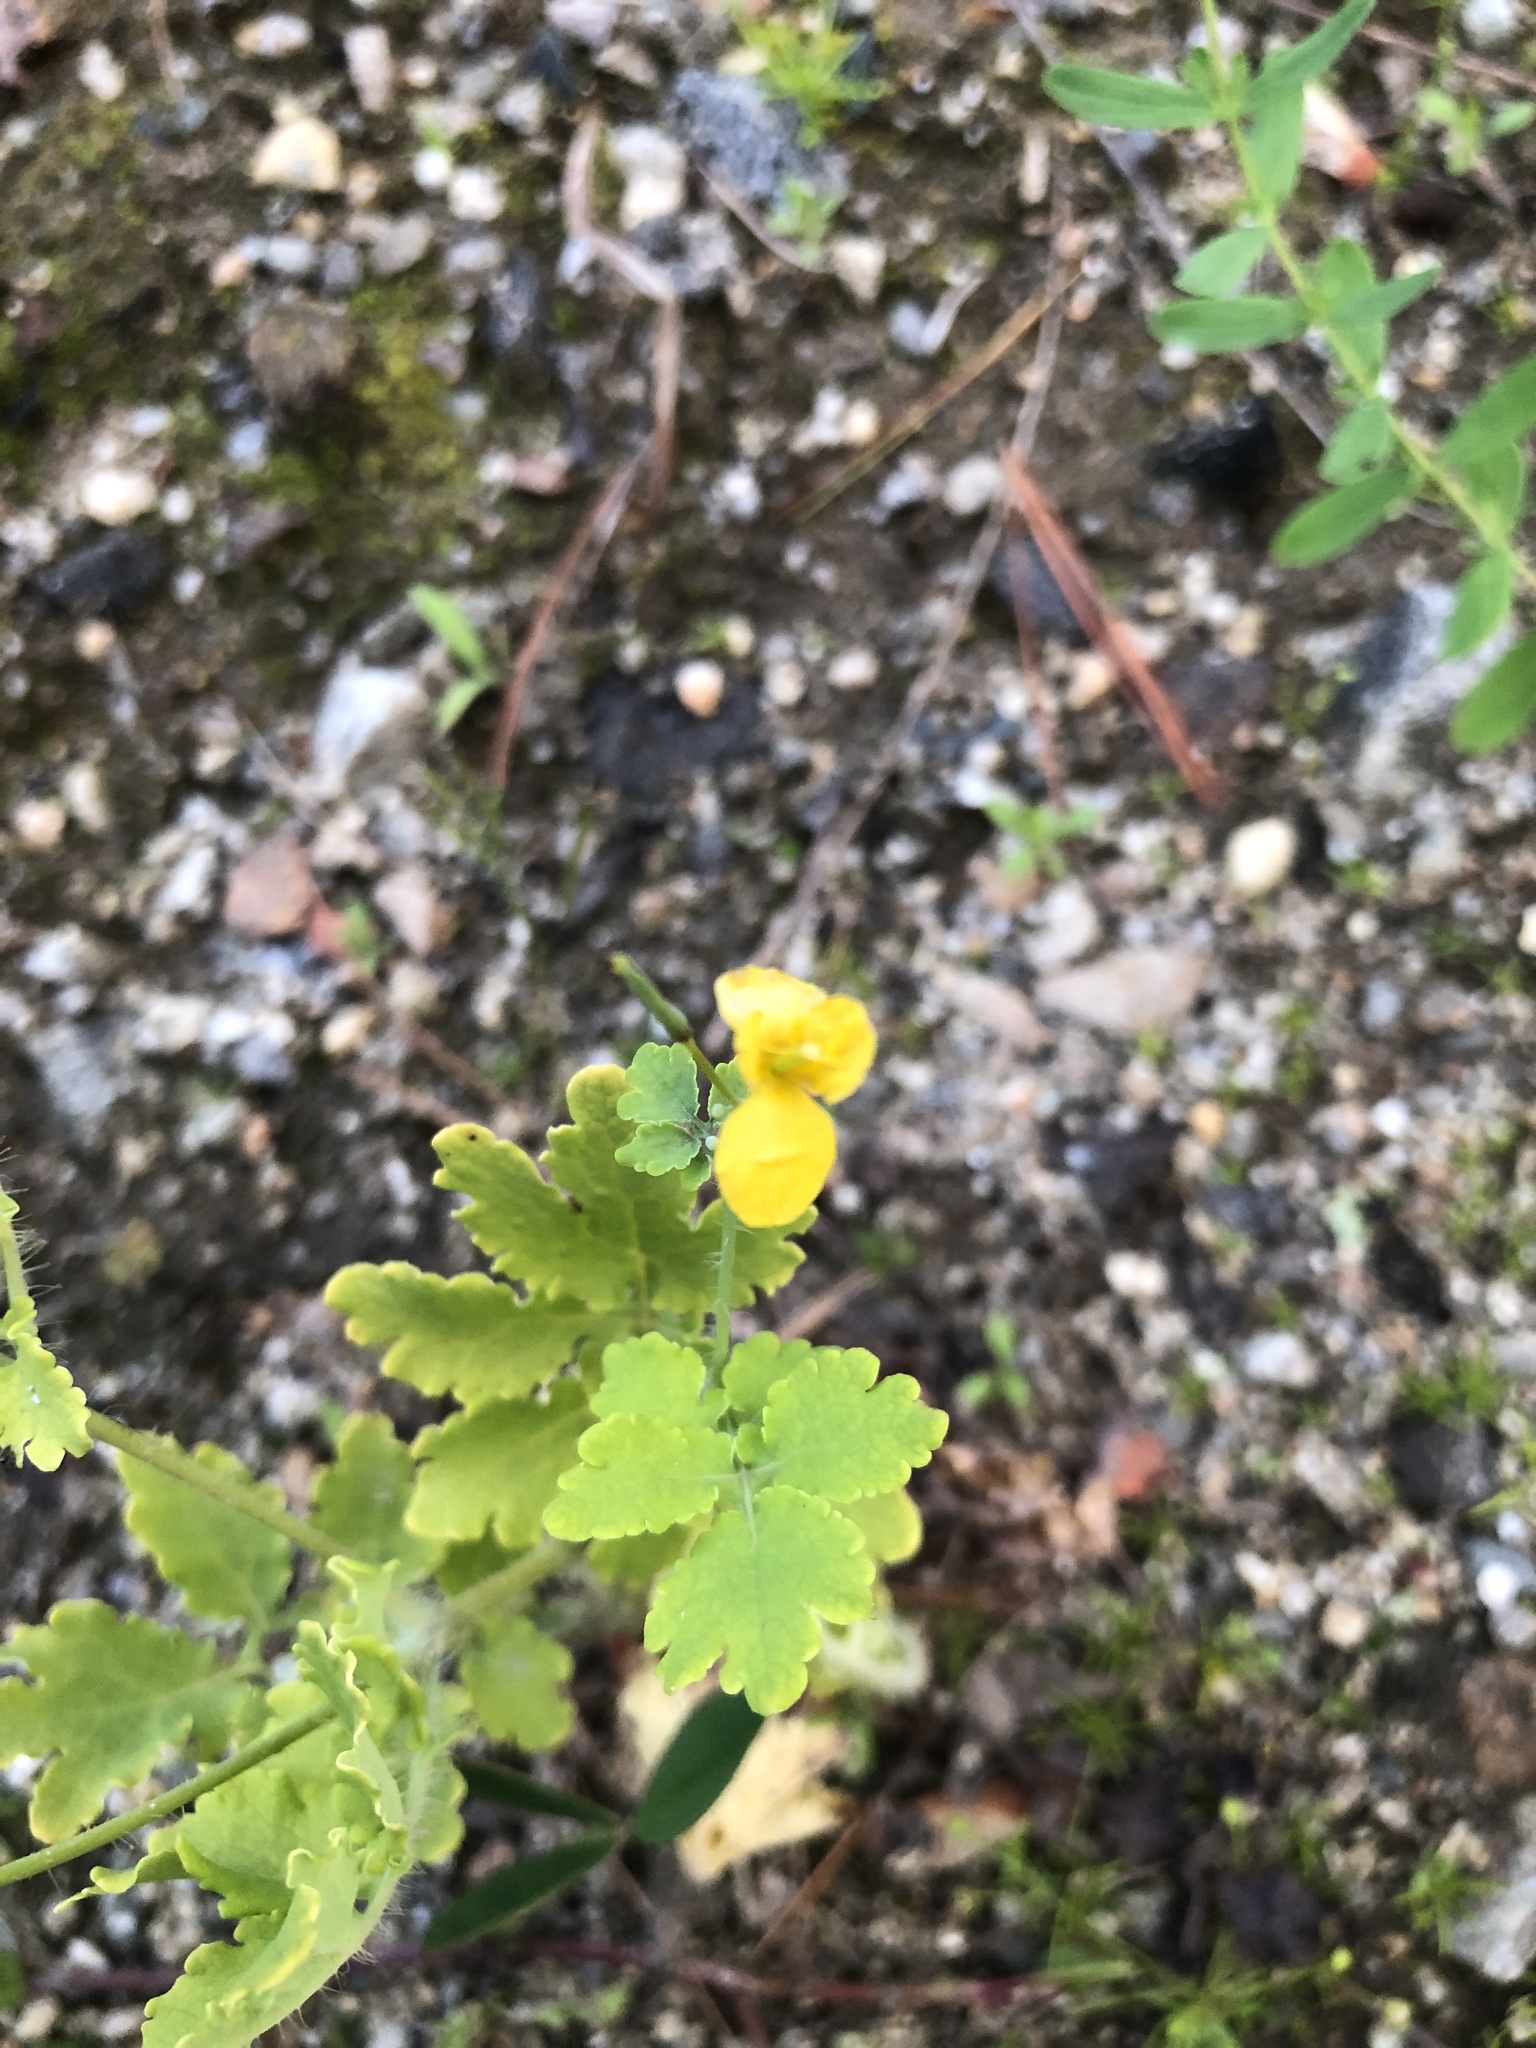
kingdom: Plantae
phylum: Tracheophyta
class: Magnoliopsida
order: Ranunculales
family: Papaveraceae
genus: Chelidonium
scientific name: Chelidonium majus
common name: Greater celandine
